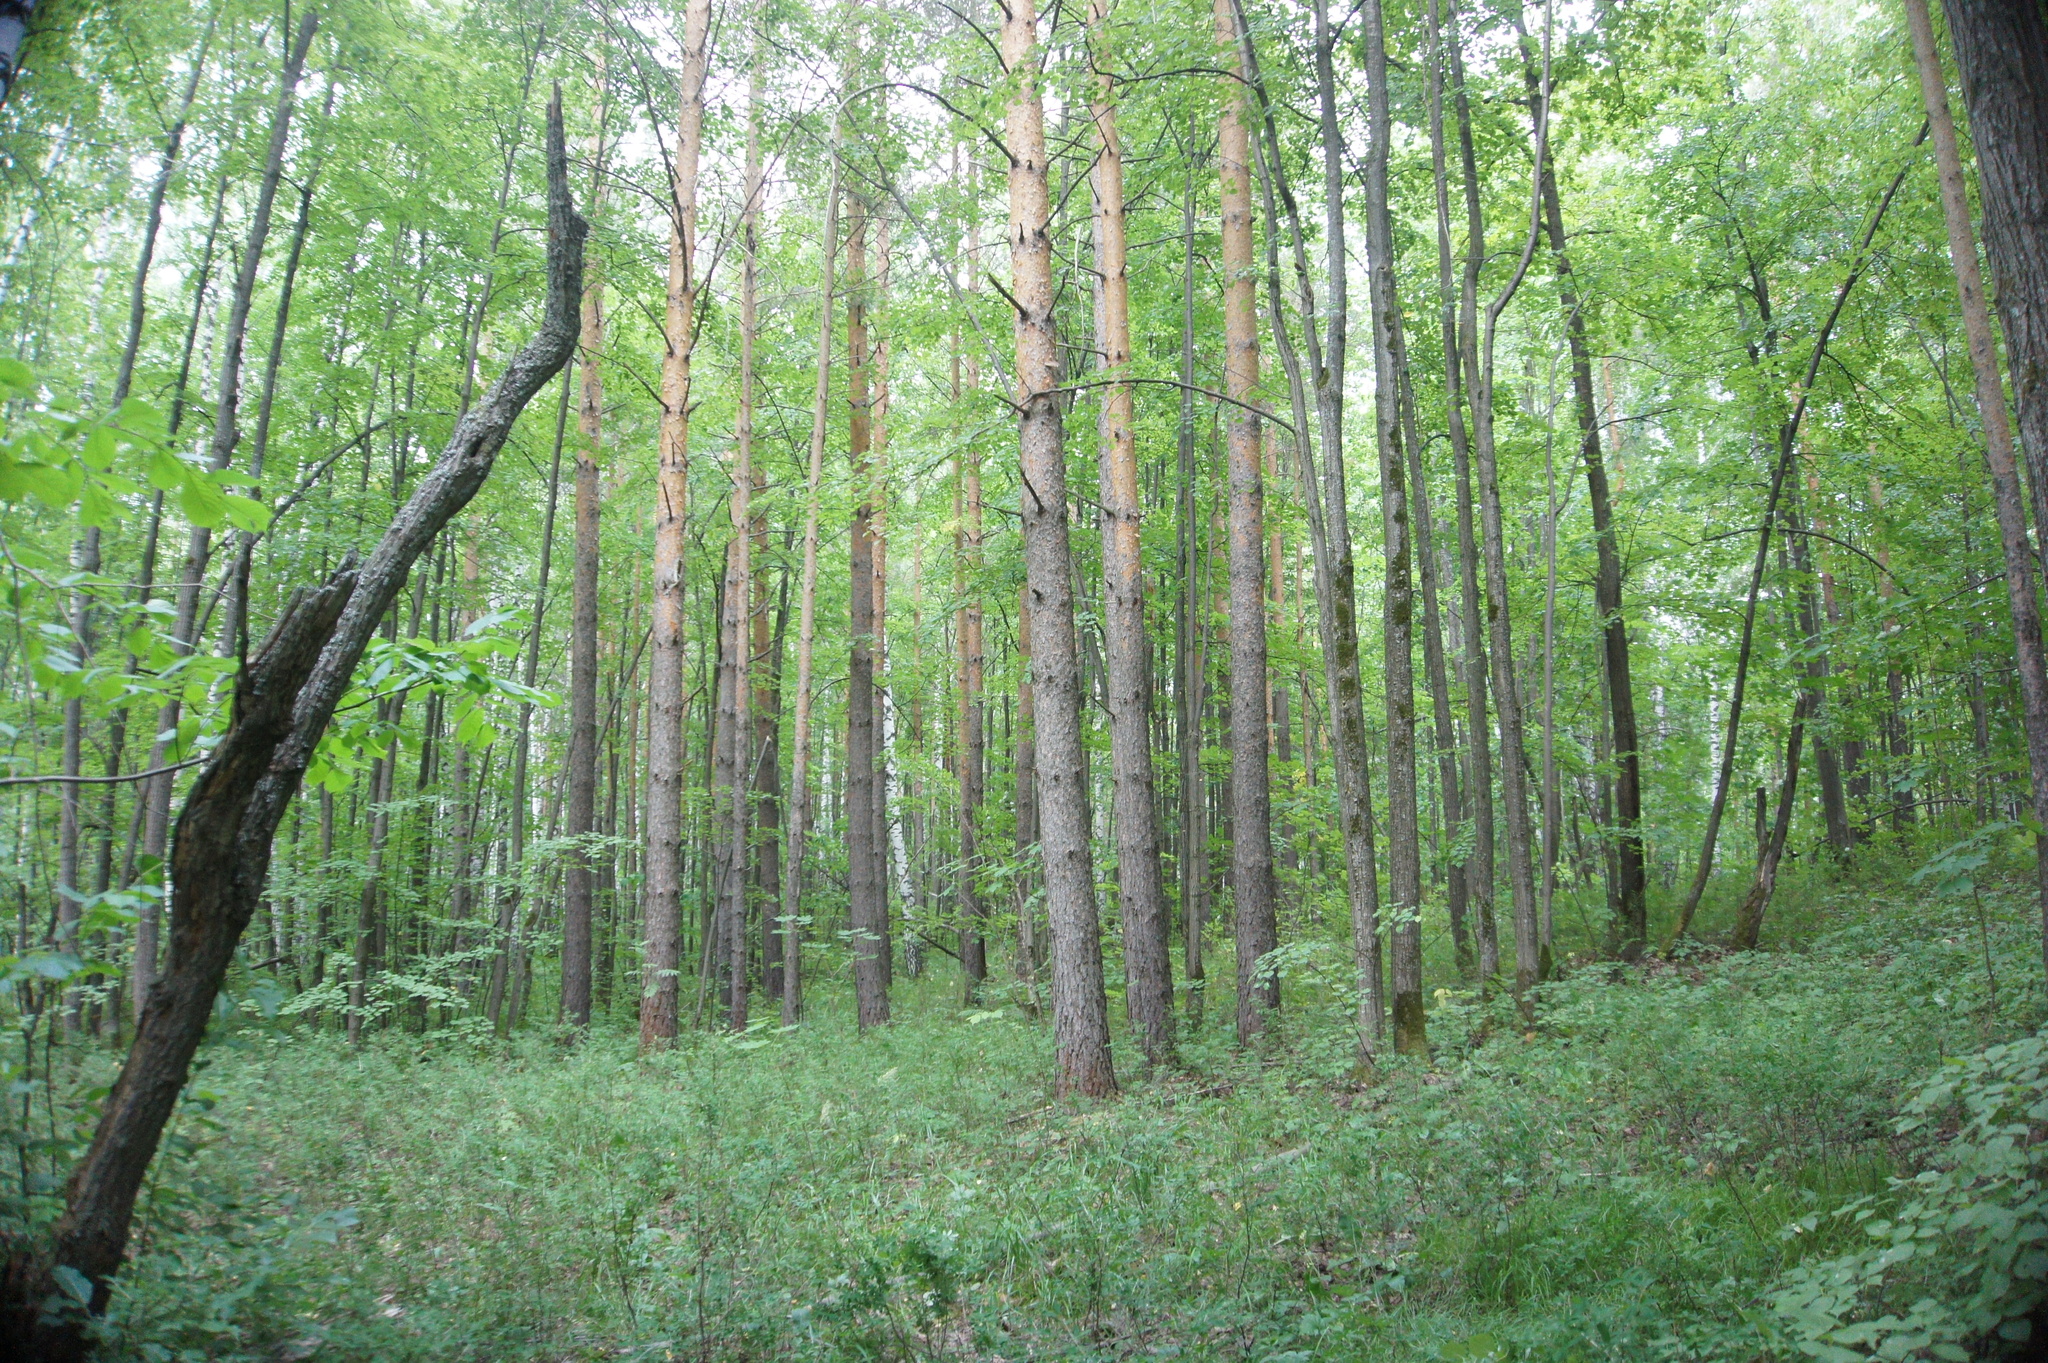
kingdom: Plantae
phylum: Tracheophyta
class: Pinopsida
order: Pinales
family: Pinaceae
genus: Pinus
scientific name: Pinus sylvestris
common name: Scots pine
